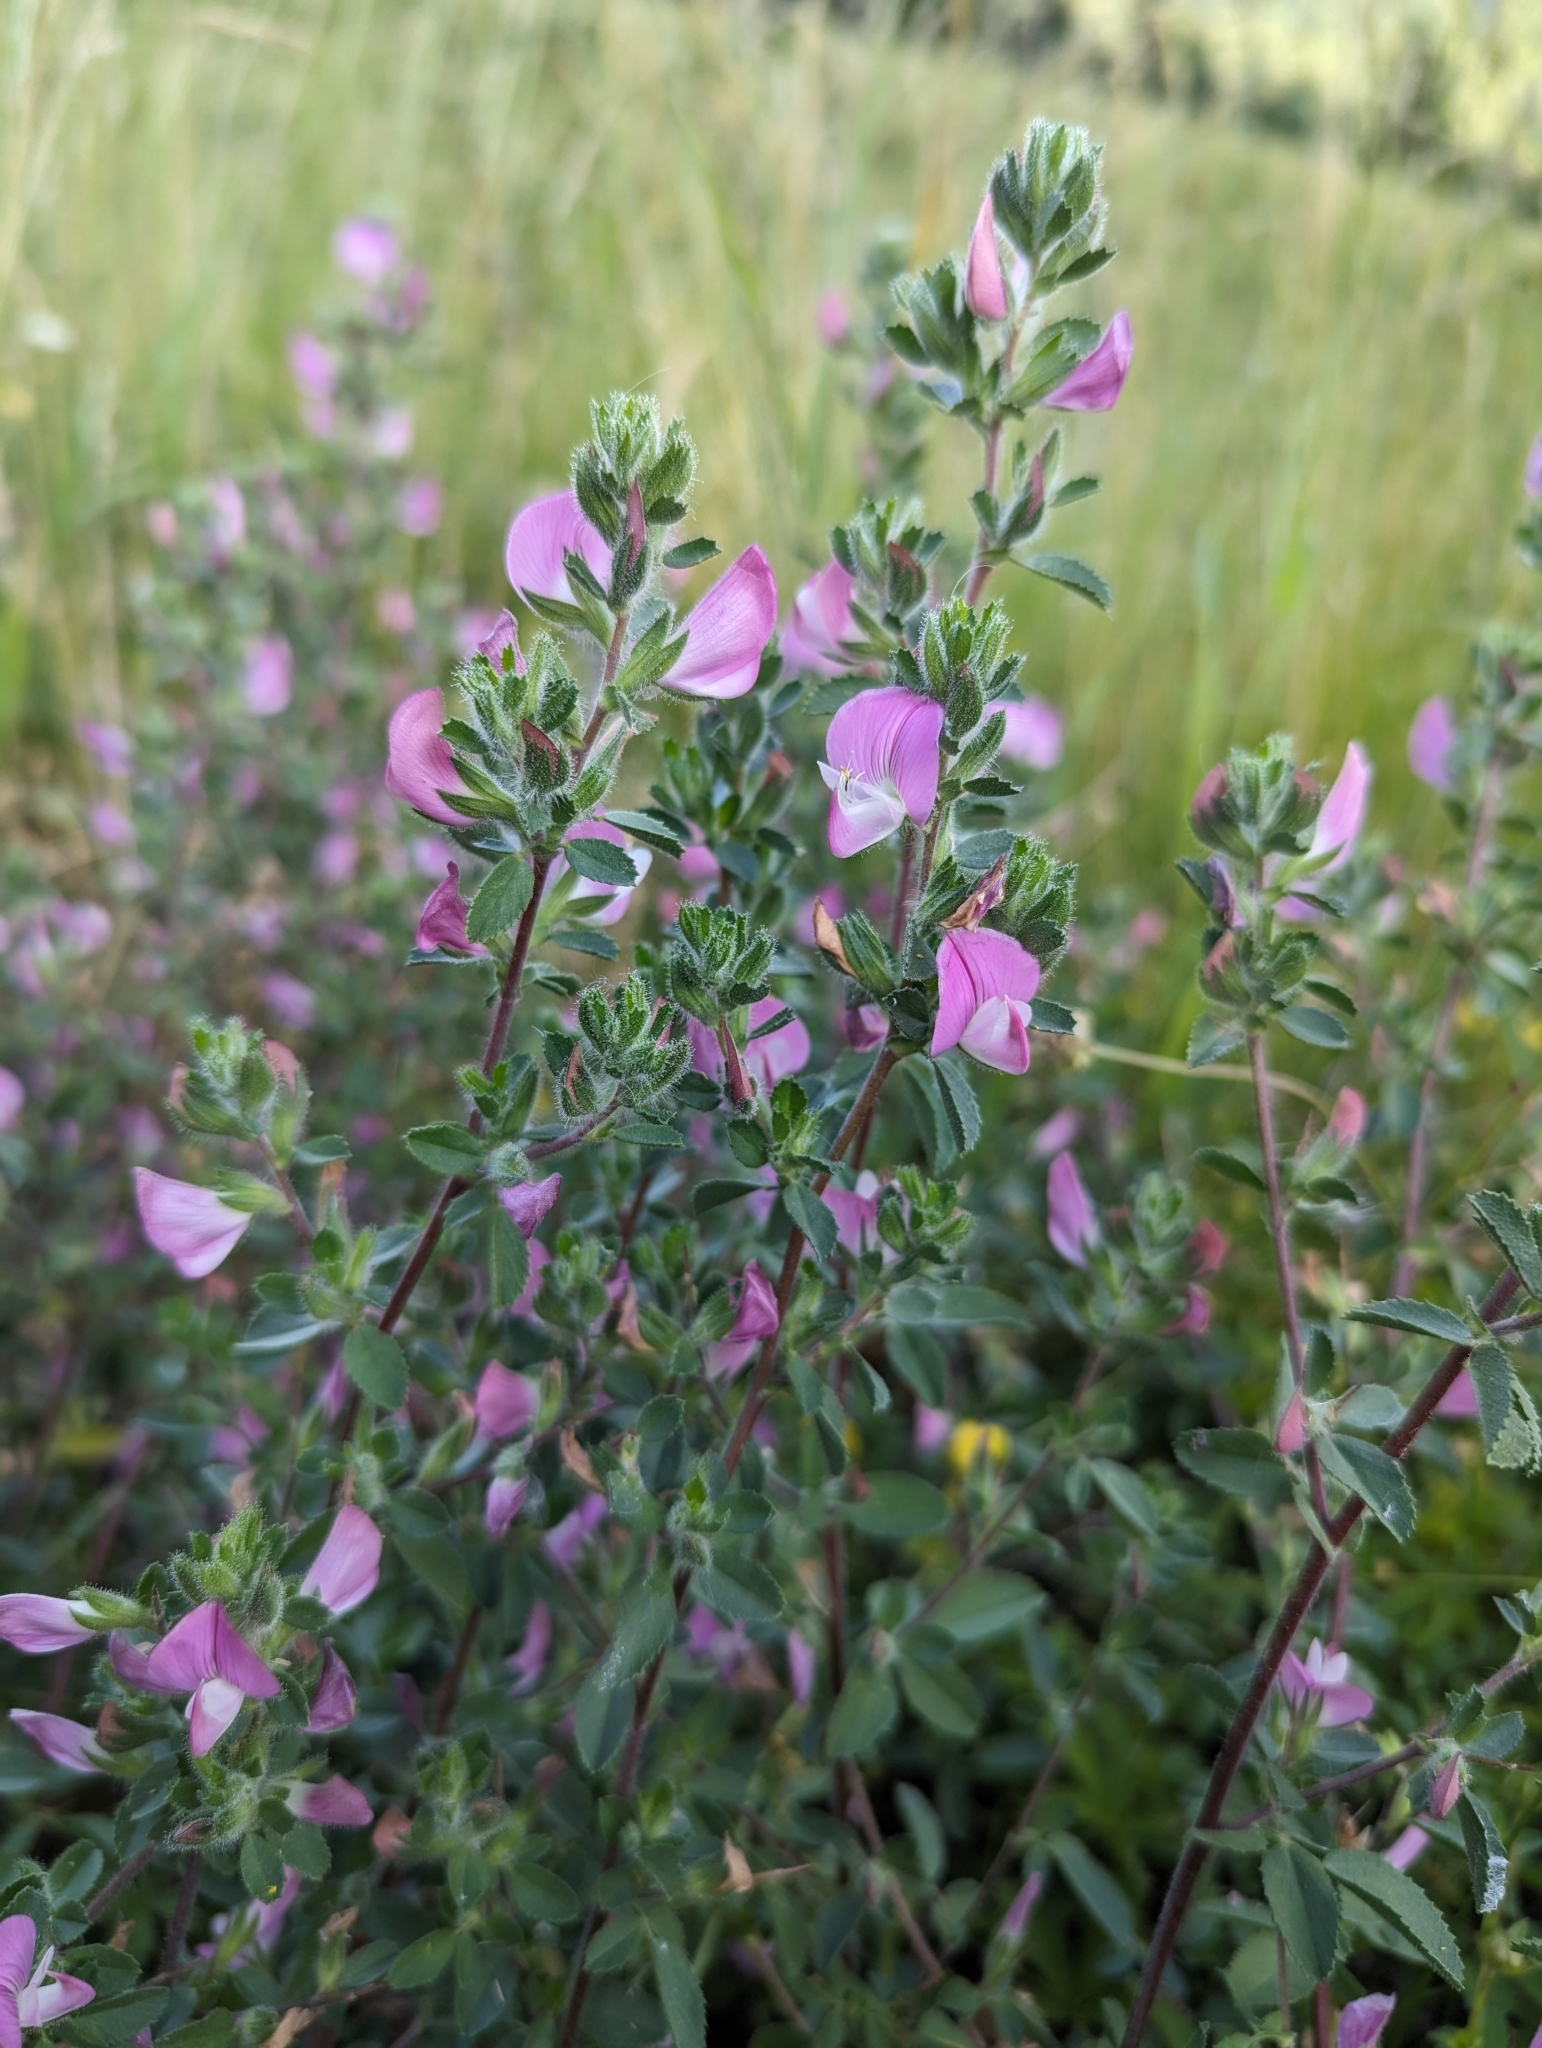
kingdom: Plantae
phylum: Tracheophyta
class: Magnoliopsida
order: Fabales
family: Fabaceae
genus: Ononis
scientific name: Ononis spinosa
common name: Spiny restharrow
